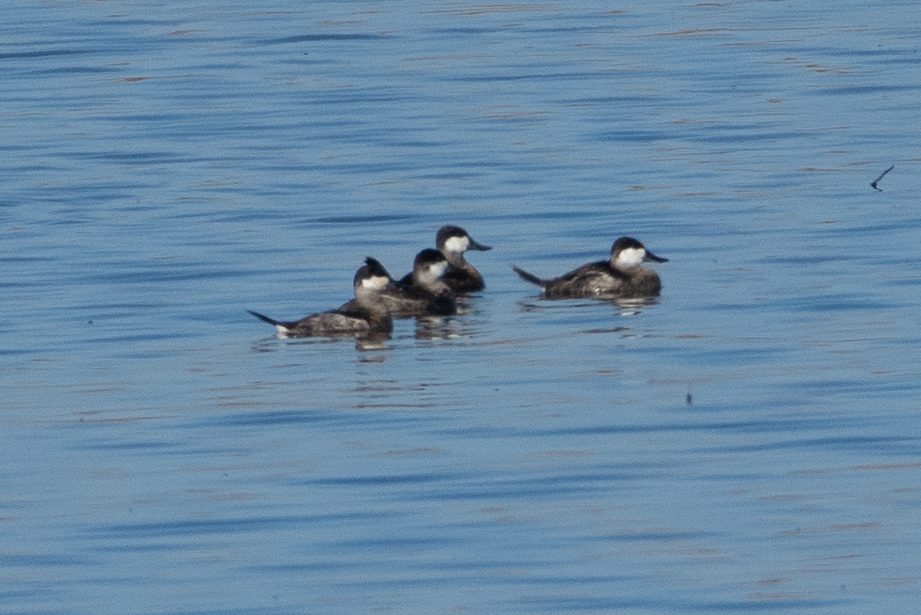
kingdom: Animalia
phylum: Chordata
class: Aves
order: Anseriformes
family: Anatidae
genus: Oxyura
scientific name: Oxyura jamaicensis
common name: Ruddy duck
